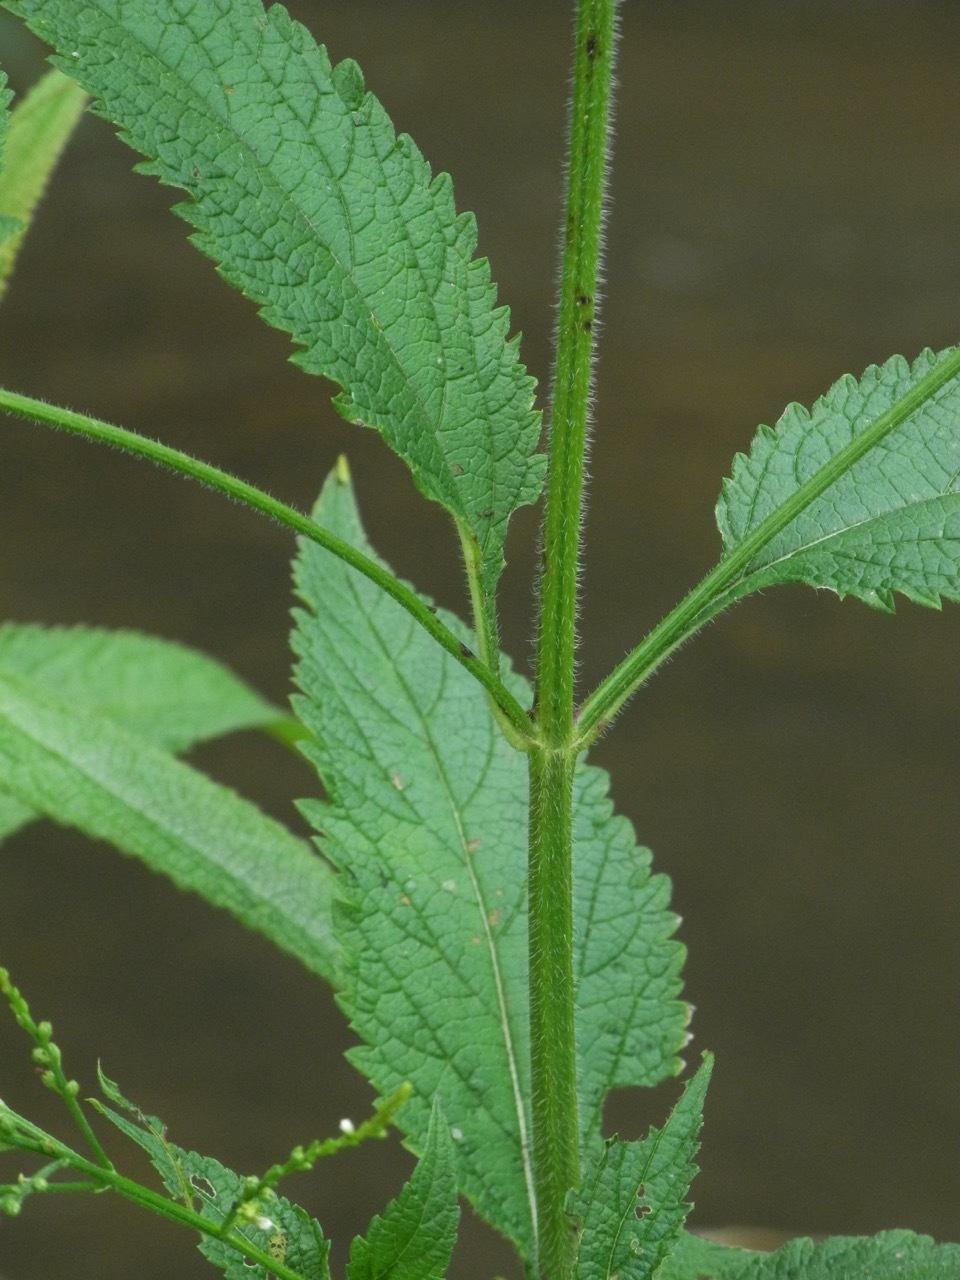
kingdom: Plantae
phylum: Tracheophyta
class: Magnoliopsida
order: Lamiales
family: Verbenaceae
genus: Verbena
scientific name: Verbena urticifolia
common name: Nettle-leaved vervain
